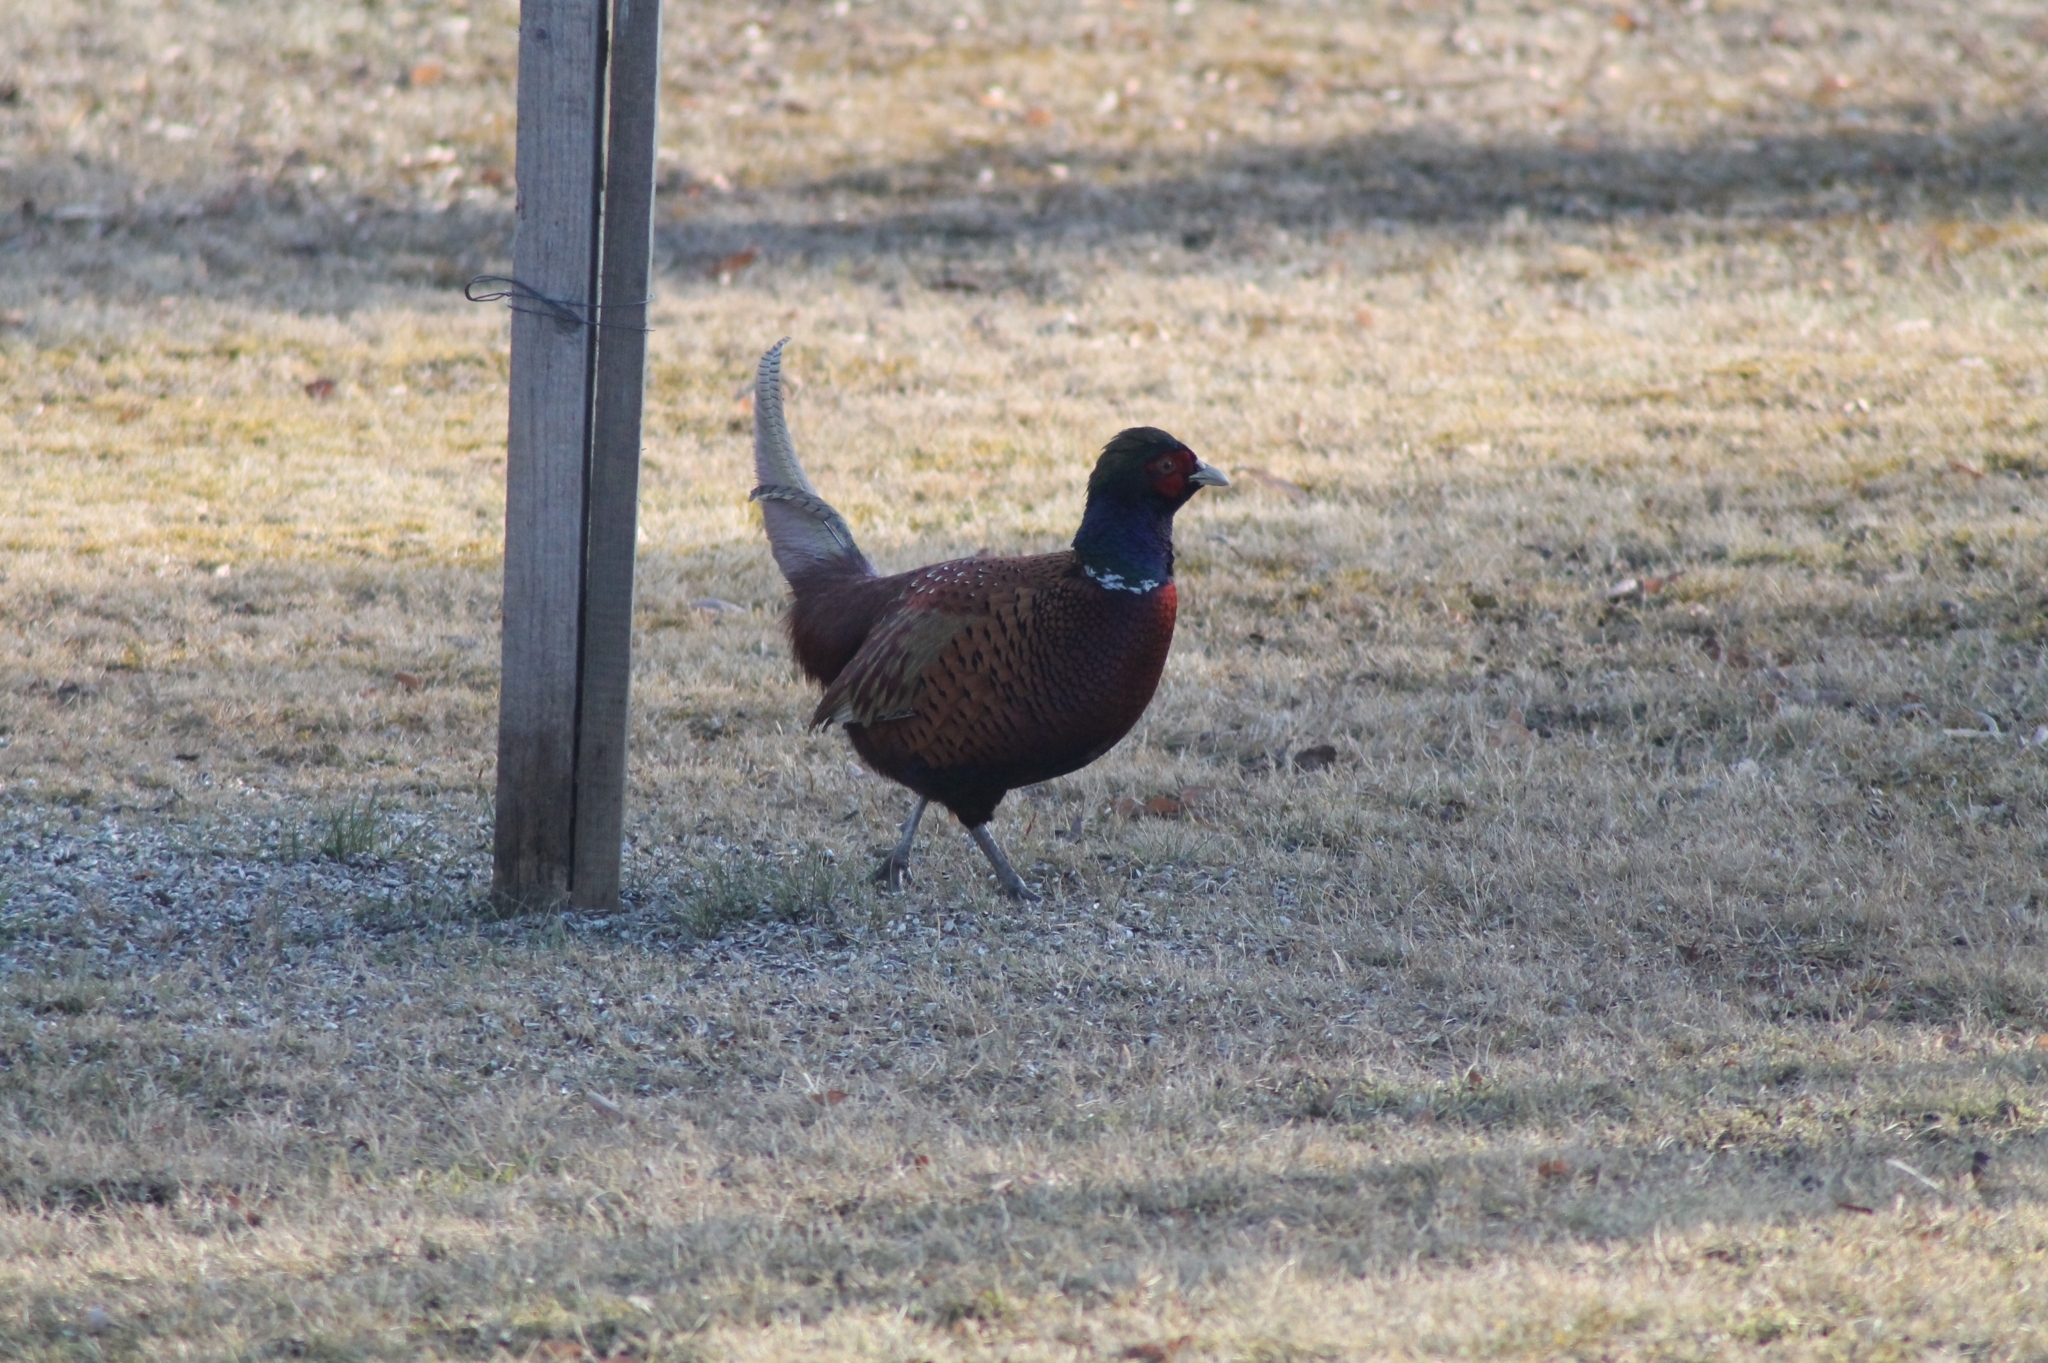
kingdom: Animalia
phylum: Chordata
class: Aves
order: Galliformes
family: Phasianidae
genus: Phasianus
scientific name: Phasianus colchicus
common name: Common pheasant
